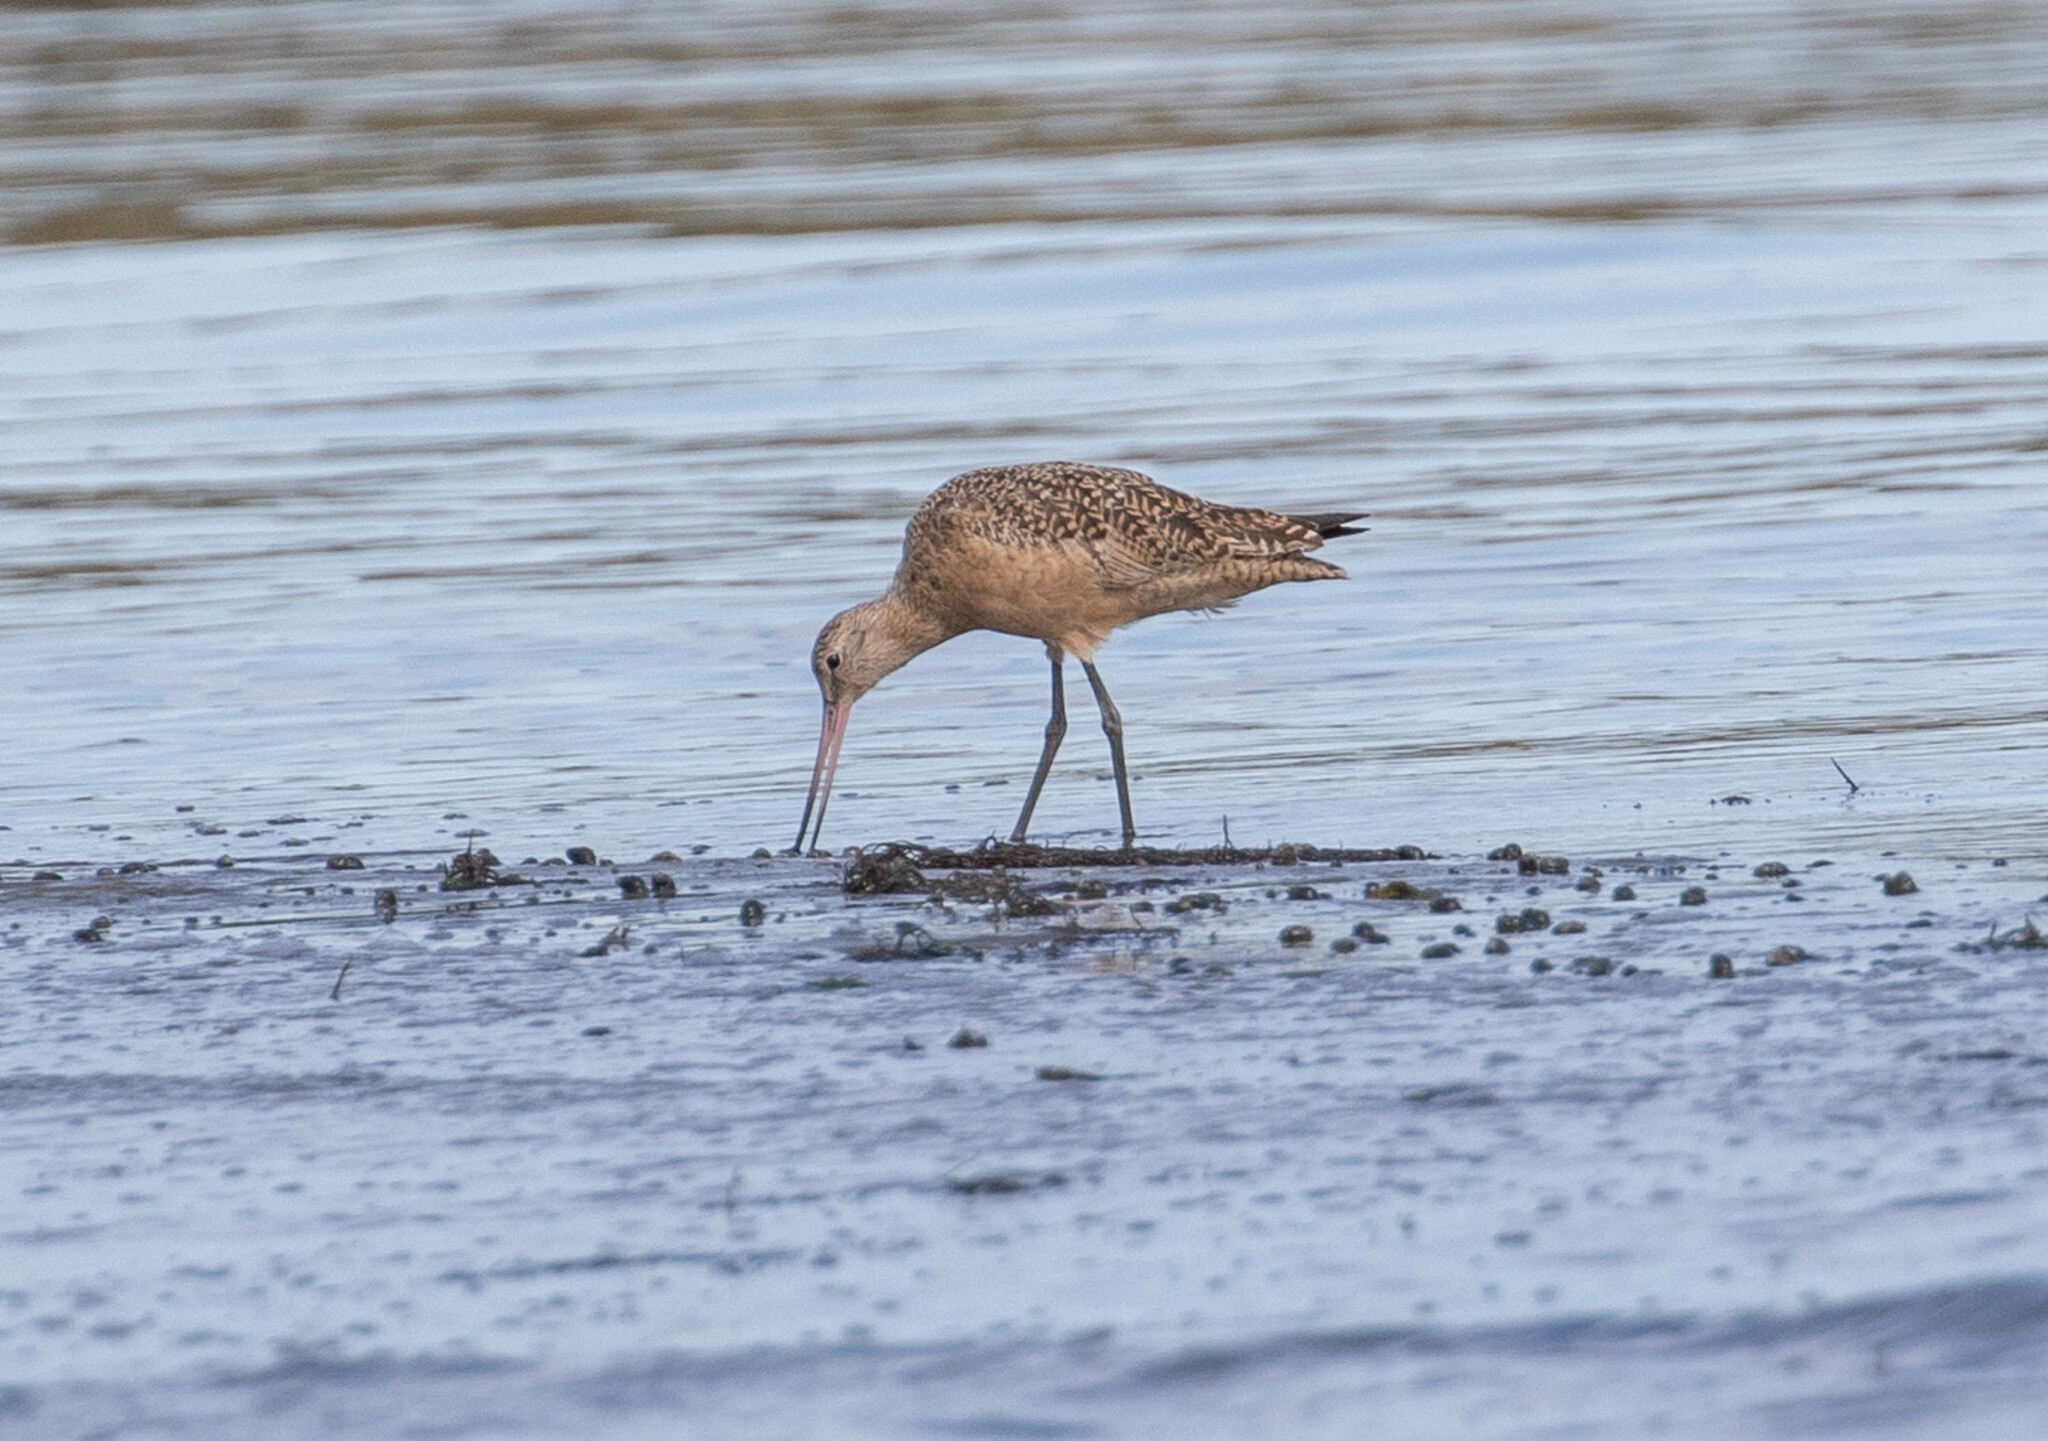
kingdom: Animalia
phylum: Chordata
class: Aves
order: Charadriiformes
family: Scolopacidae
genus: Limosa
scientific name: Limosa fedoa
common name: Marbled godwit
